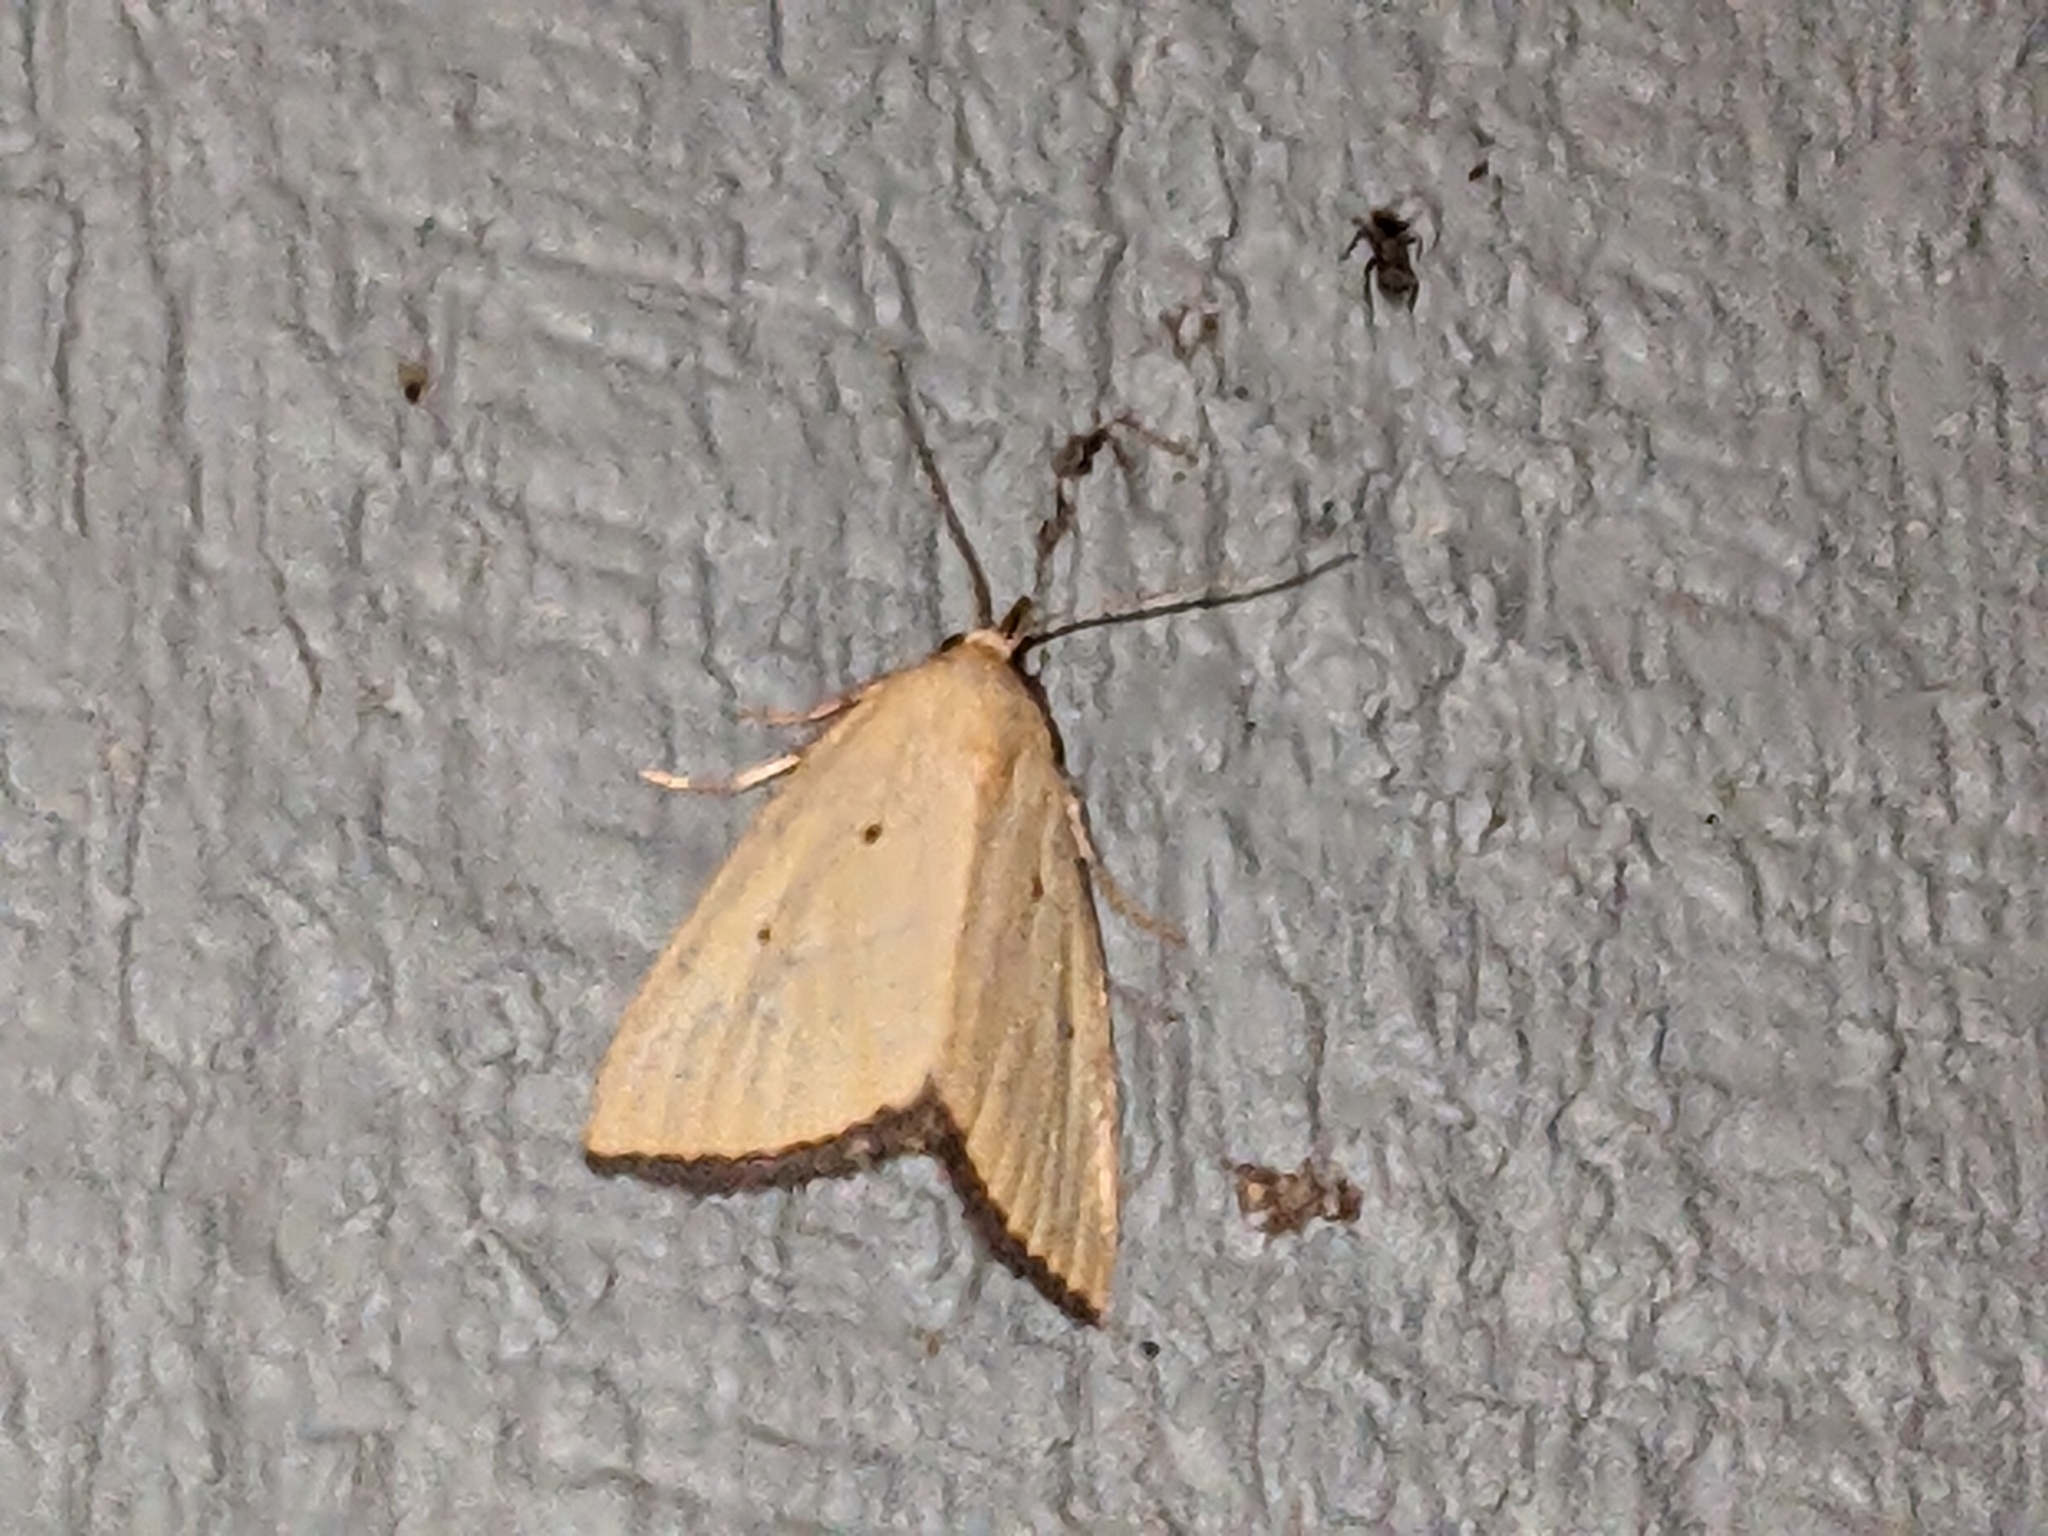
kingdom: Animalia
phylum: Arthropoda
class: Insecta
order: Lepidoptera
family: Noctuidae
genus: Marimatha
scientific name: Marimatha nigrofimbria
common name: Black-bordered lemon moth
